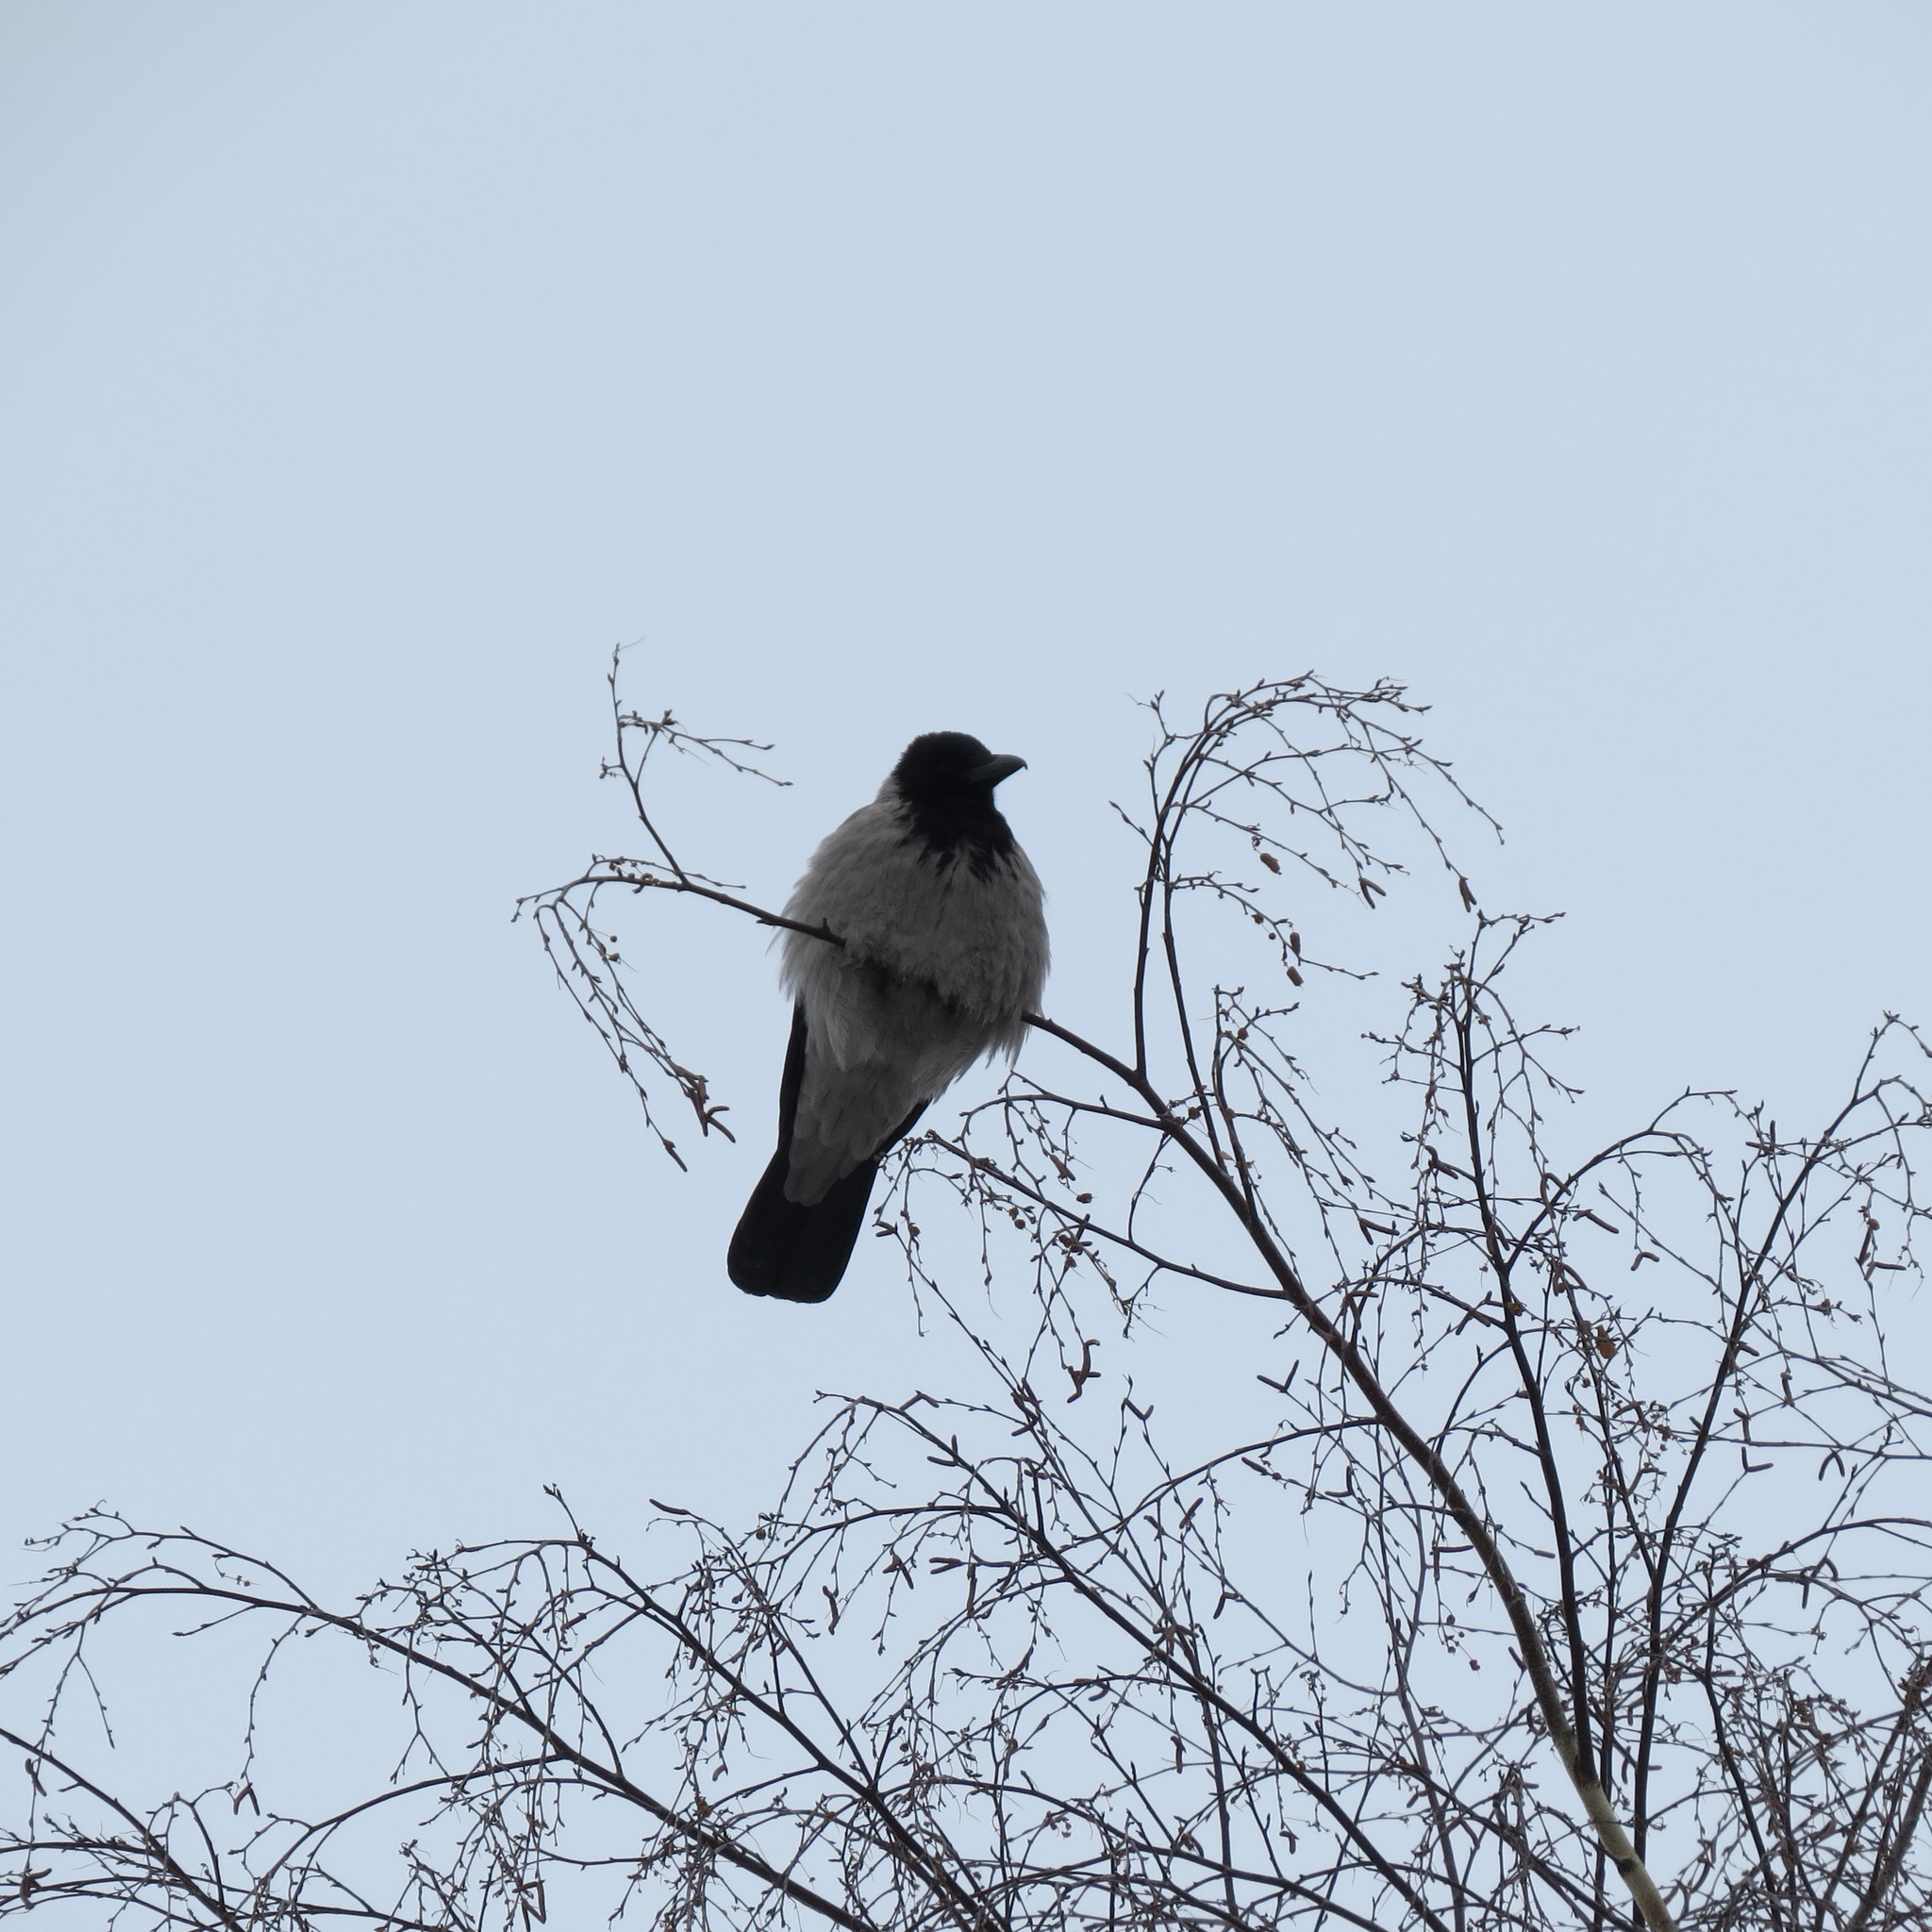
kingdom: Animalia
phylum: Chordata
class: Aves
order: Passeriformes
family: Corvidae
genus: Corvus
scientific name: Corvus cornix
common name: Hooded crow
